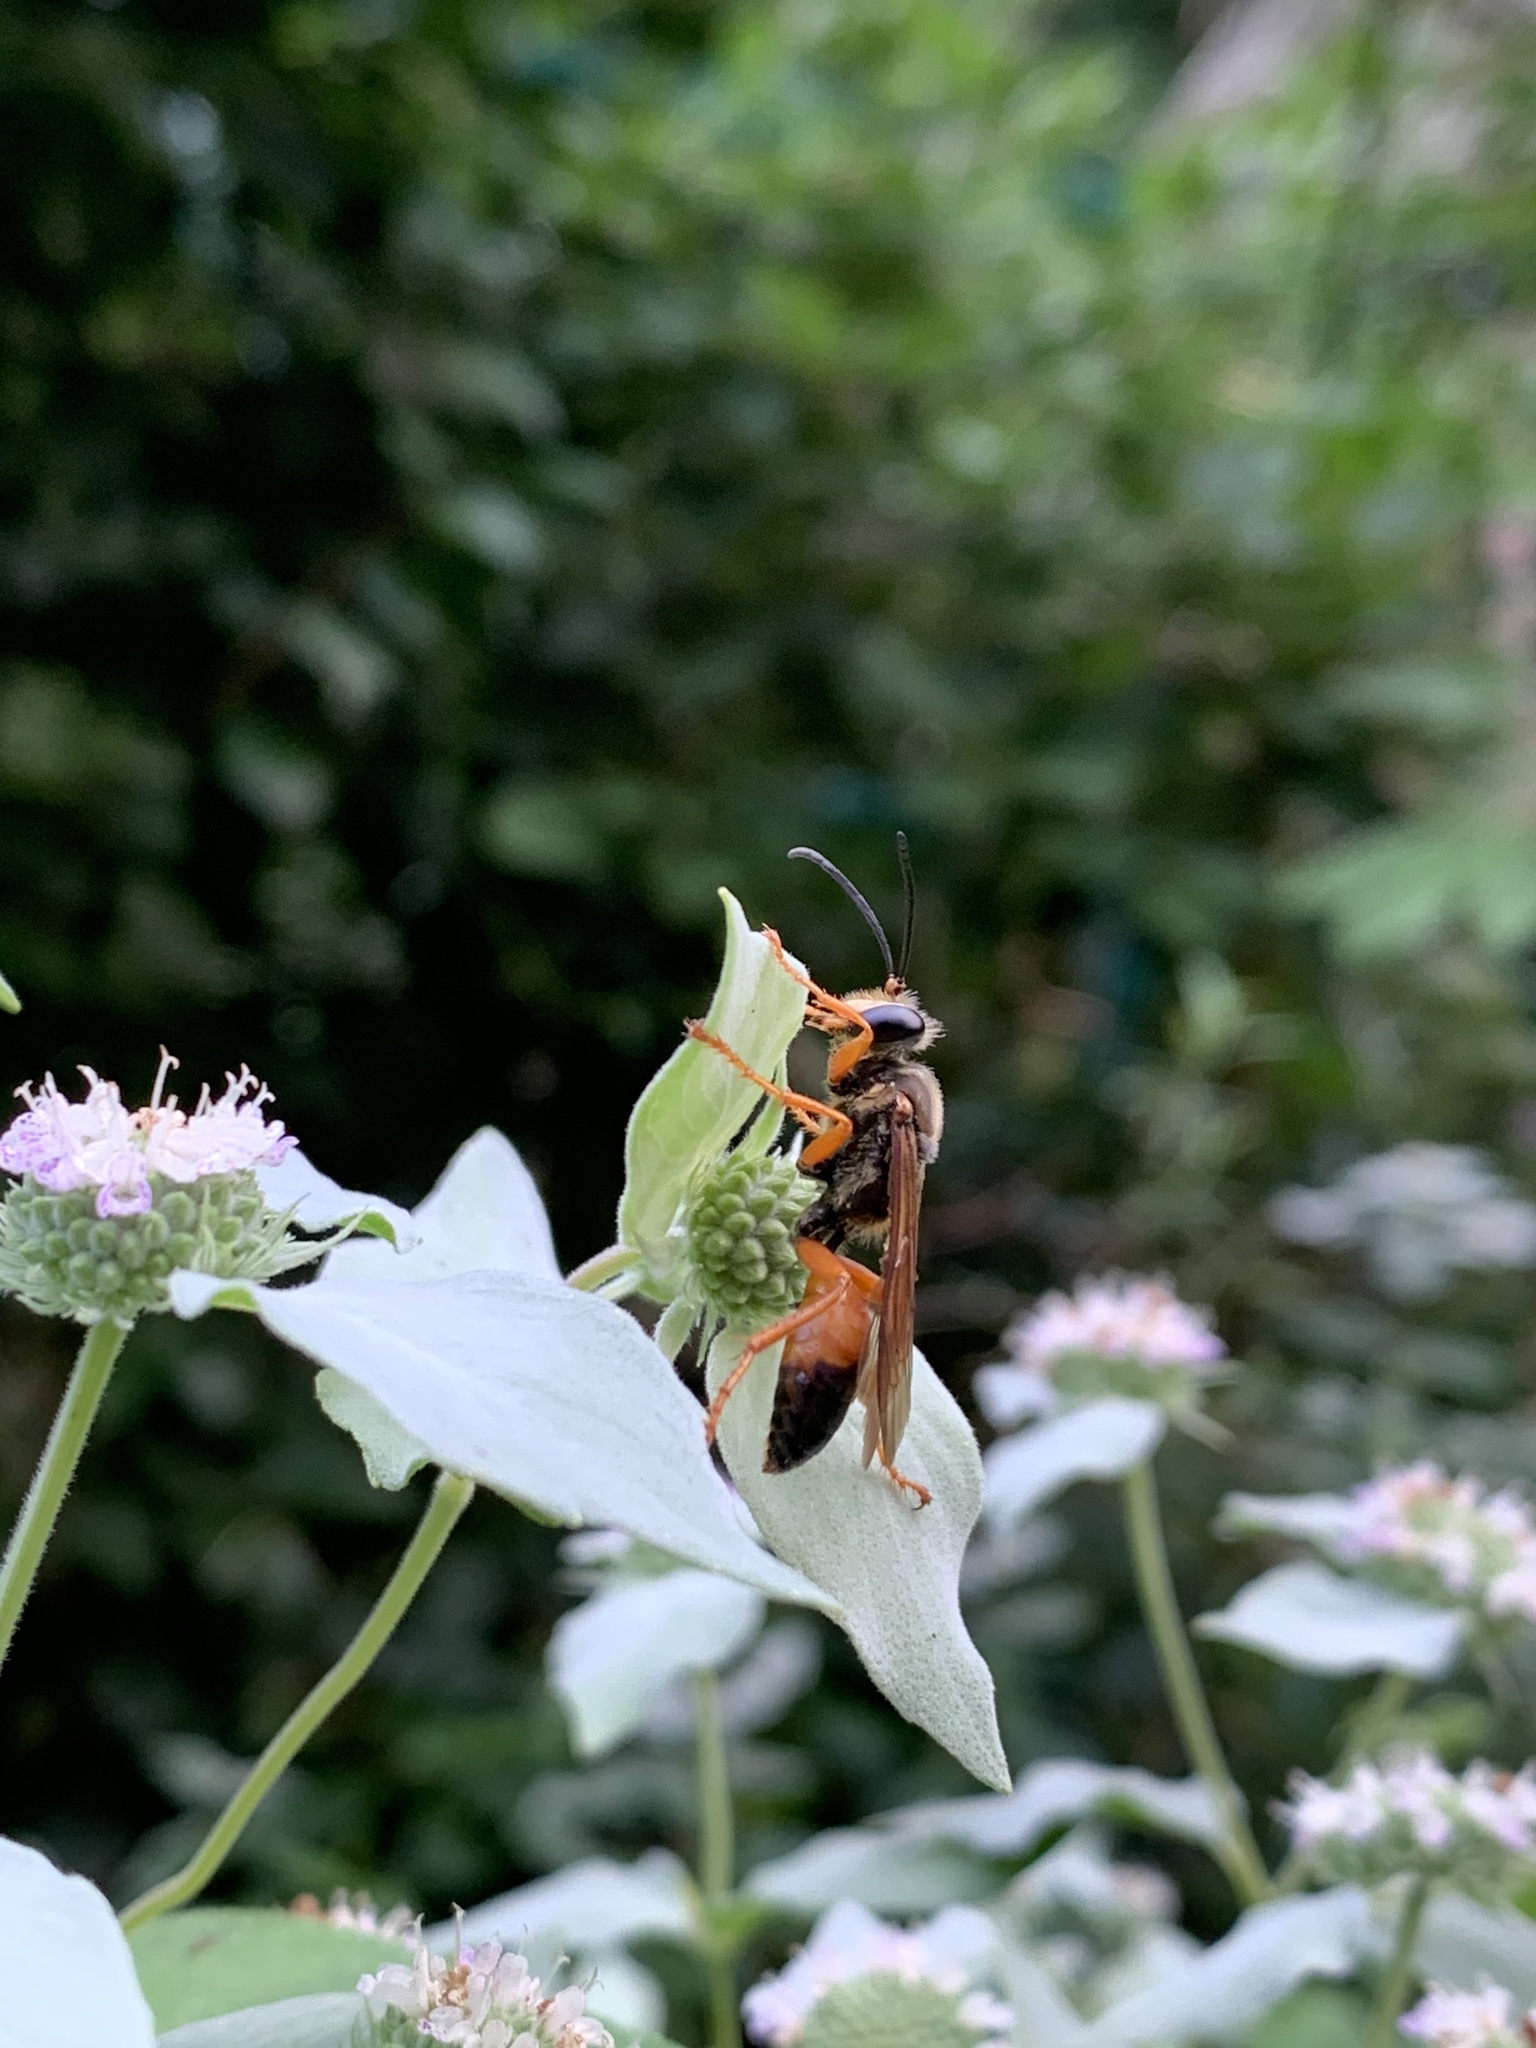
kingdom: Animalia
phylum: Arthropoda
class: Insecta
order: Hymenoptera
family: Sphecidae
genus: Sphex
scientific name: Sphex ichneumoneus
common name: Great golden digger wasp
